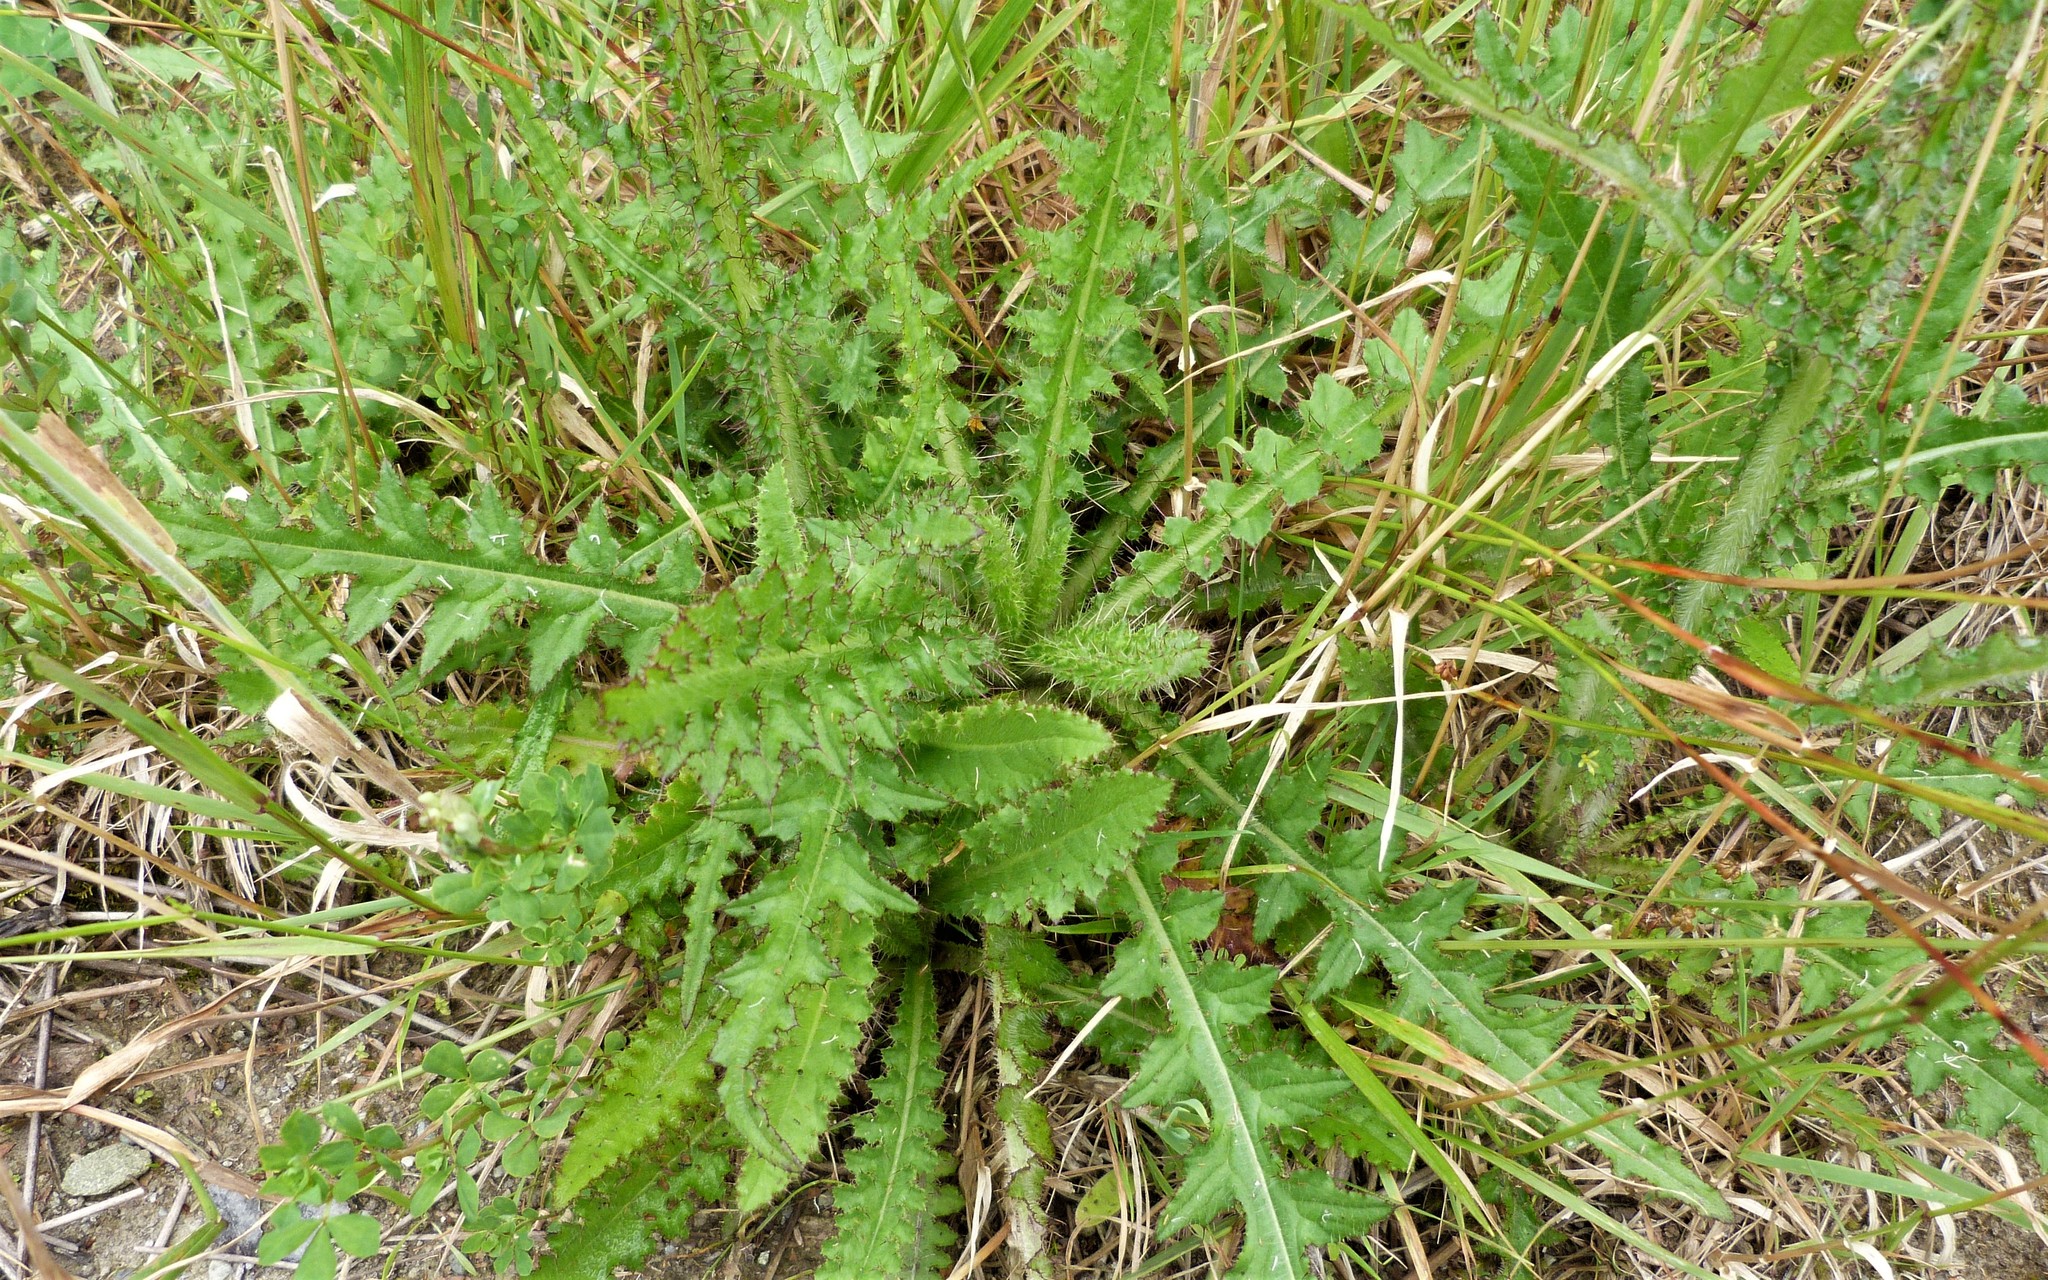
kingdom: Plantae
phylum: Tracheophyta
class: Magnoliopsida
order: Asterales
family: Asteraceae
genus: Cirsium
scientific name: Cirsium palustre
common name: Marsh thistle
